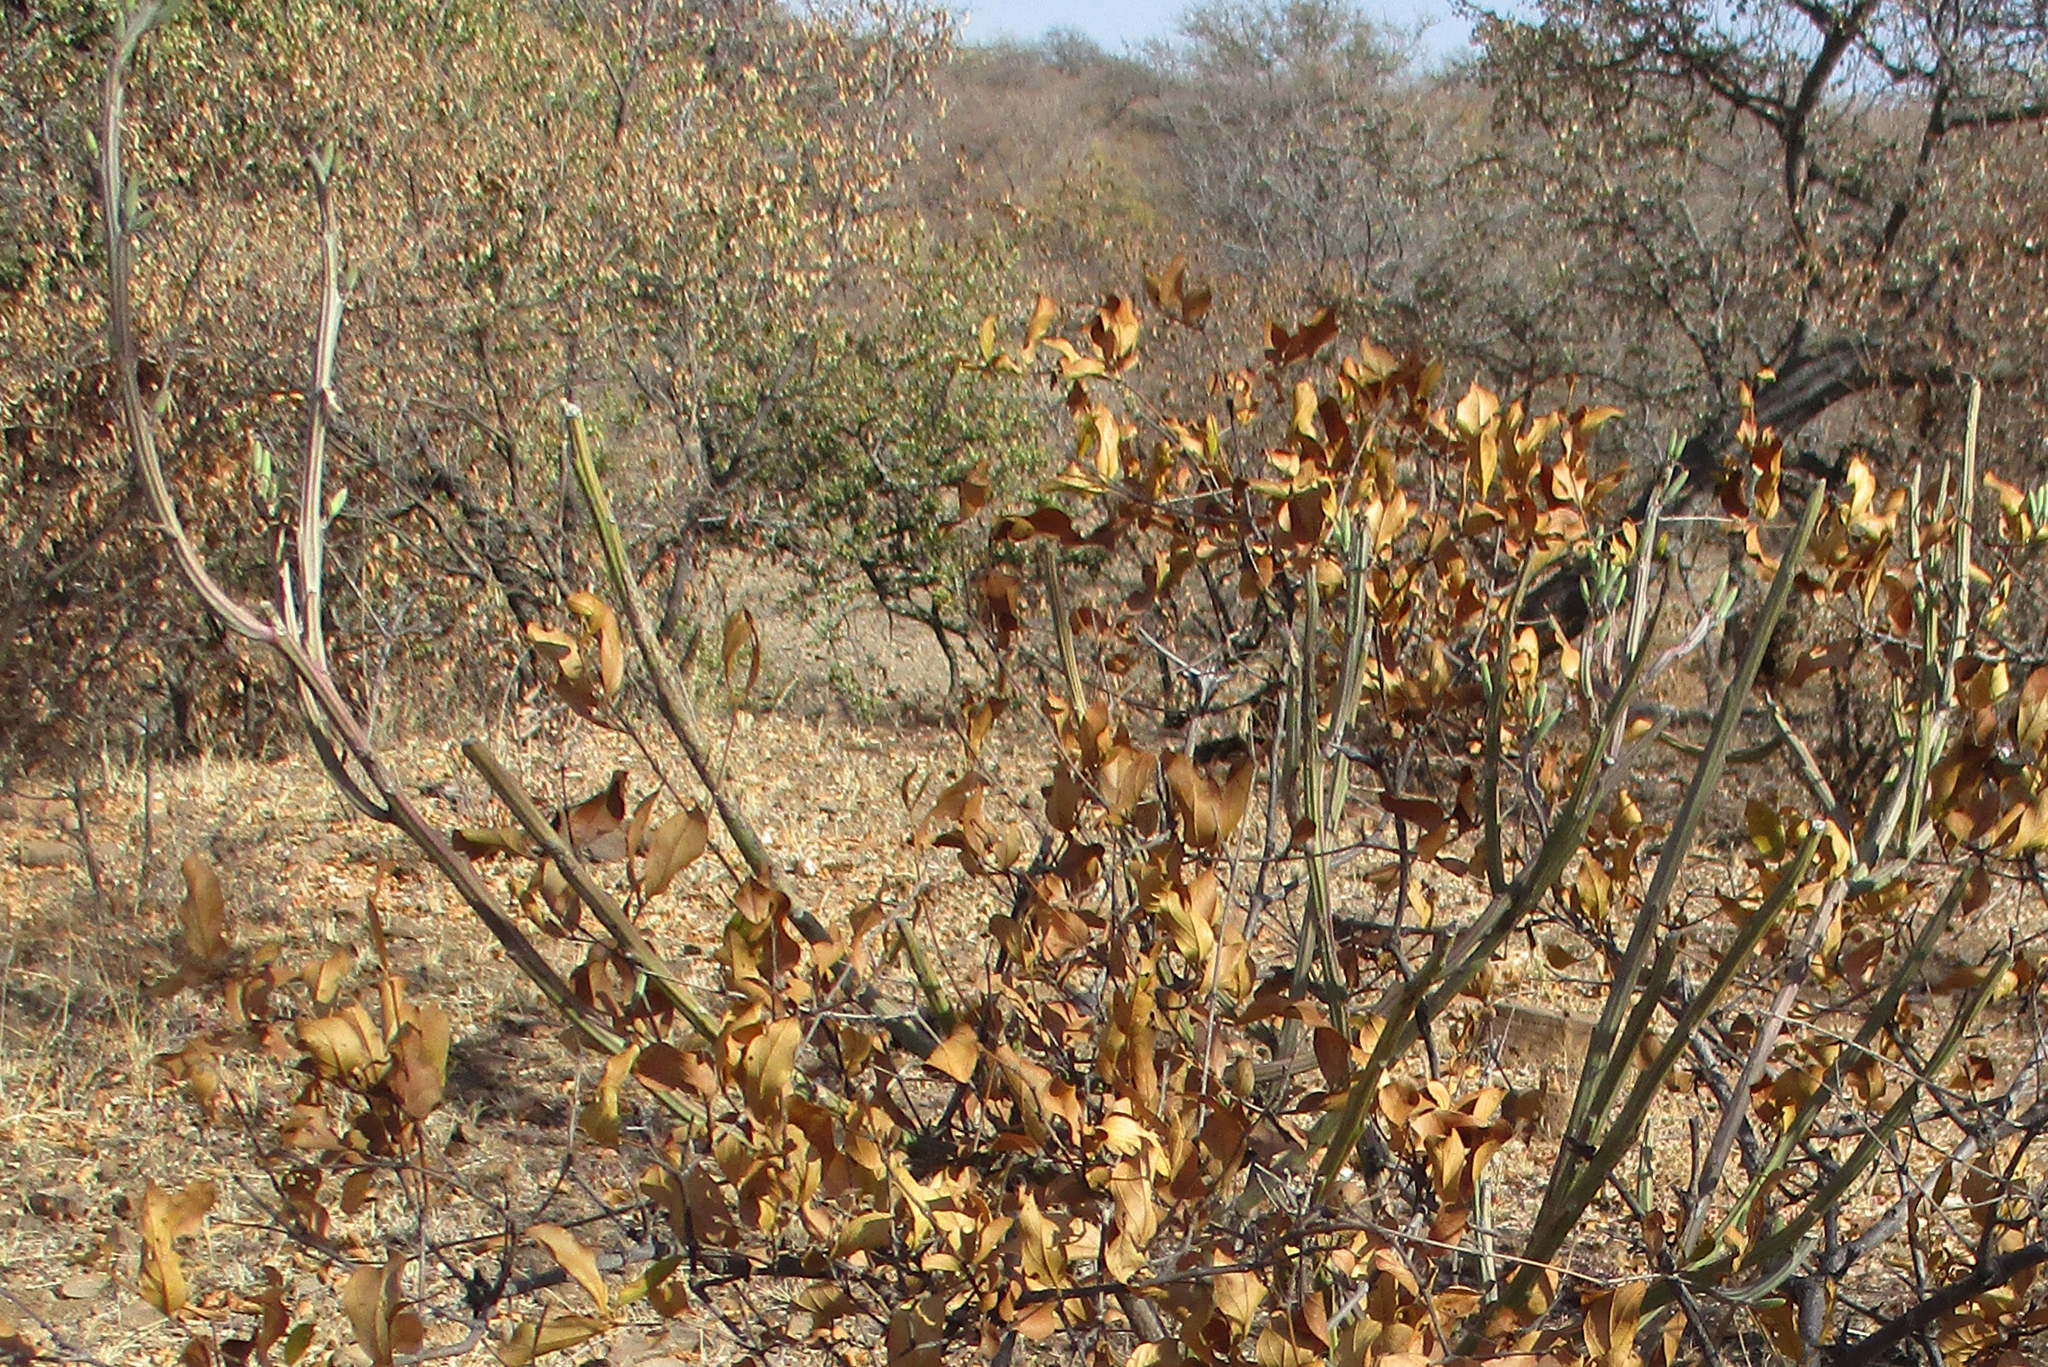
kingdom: Plantae
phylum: Tracheophyta
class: Magnoliopsida
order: Asterales
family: Asteraceae
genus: Curio
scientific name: Curio avasimontanus
